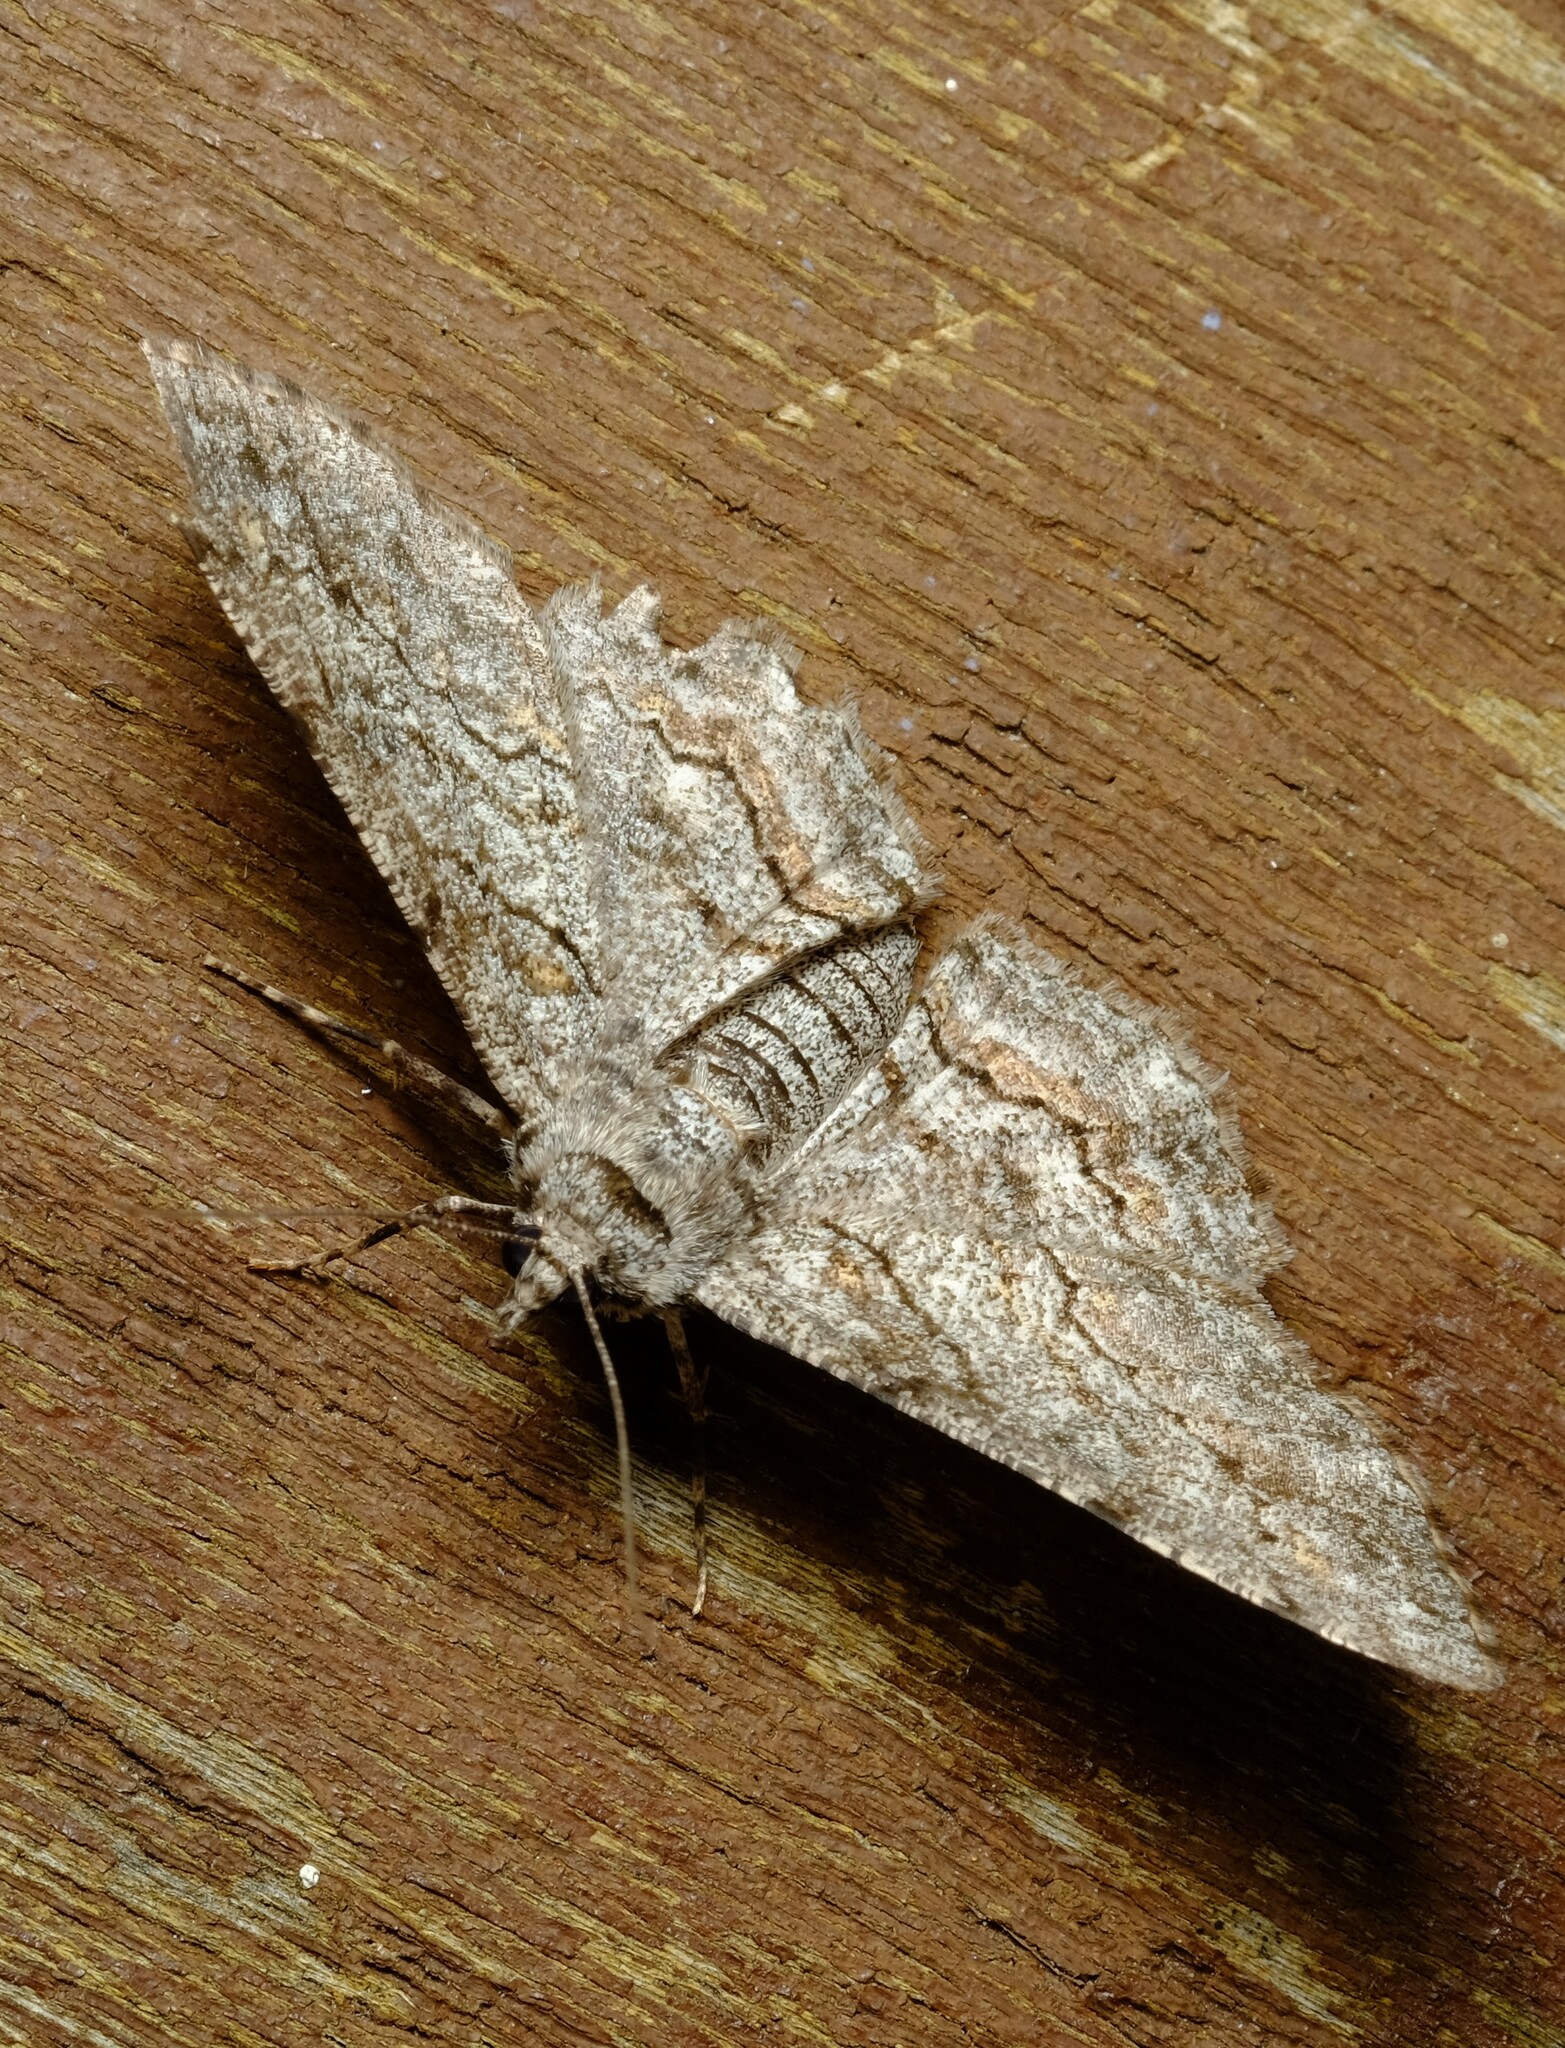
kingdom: Animalia
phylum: Arthropoda
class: Insecta
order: Lepidoptera
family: Geometridae
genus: Didymoctenia
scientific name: Didymoctenia exsuperata
